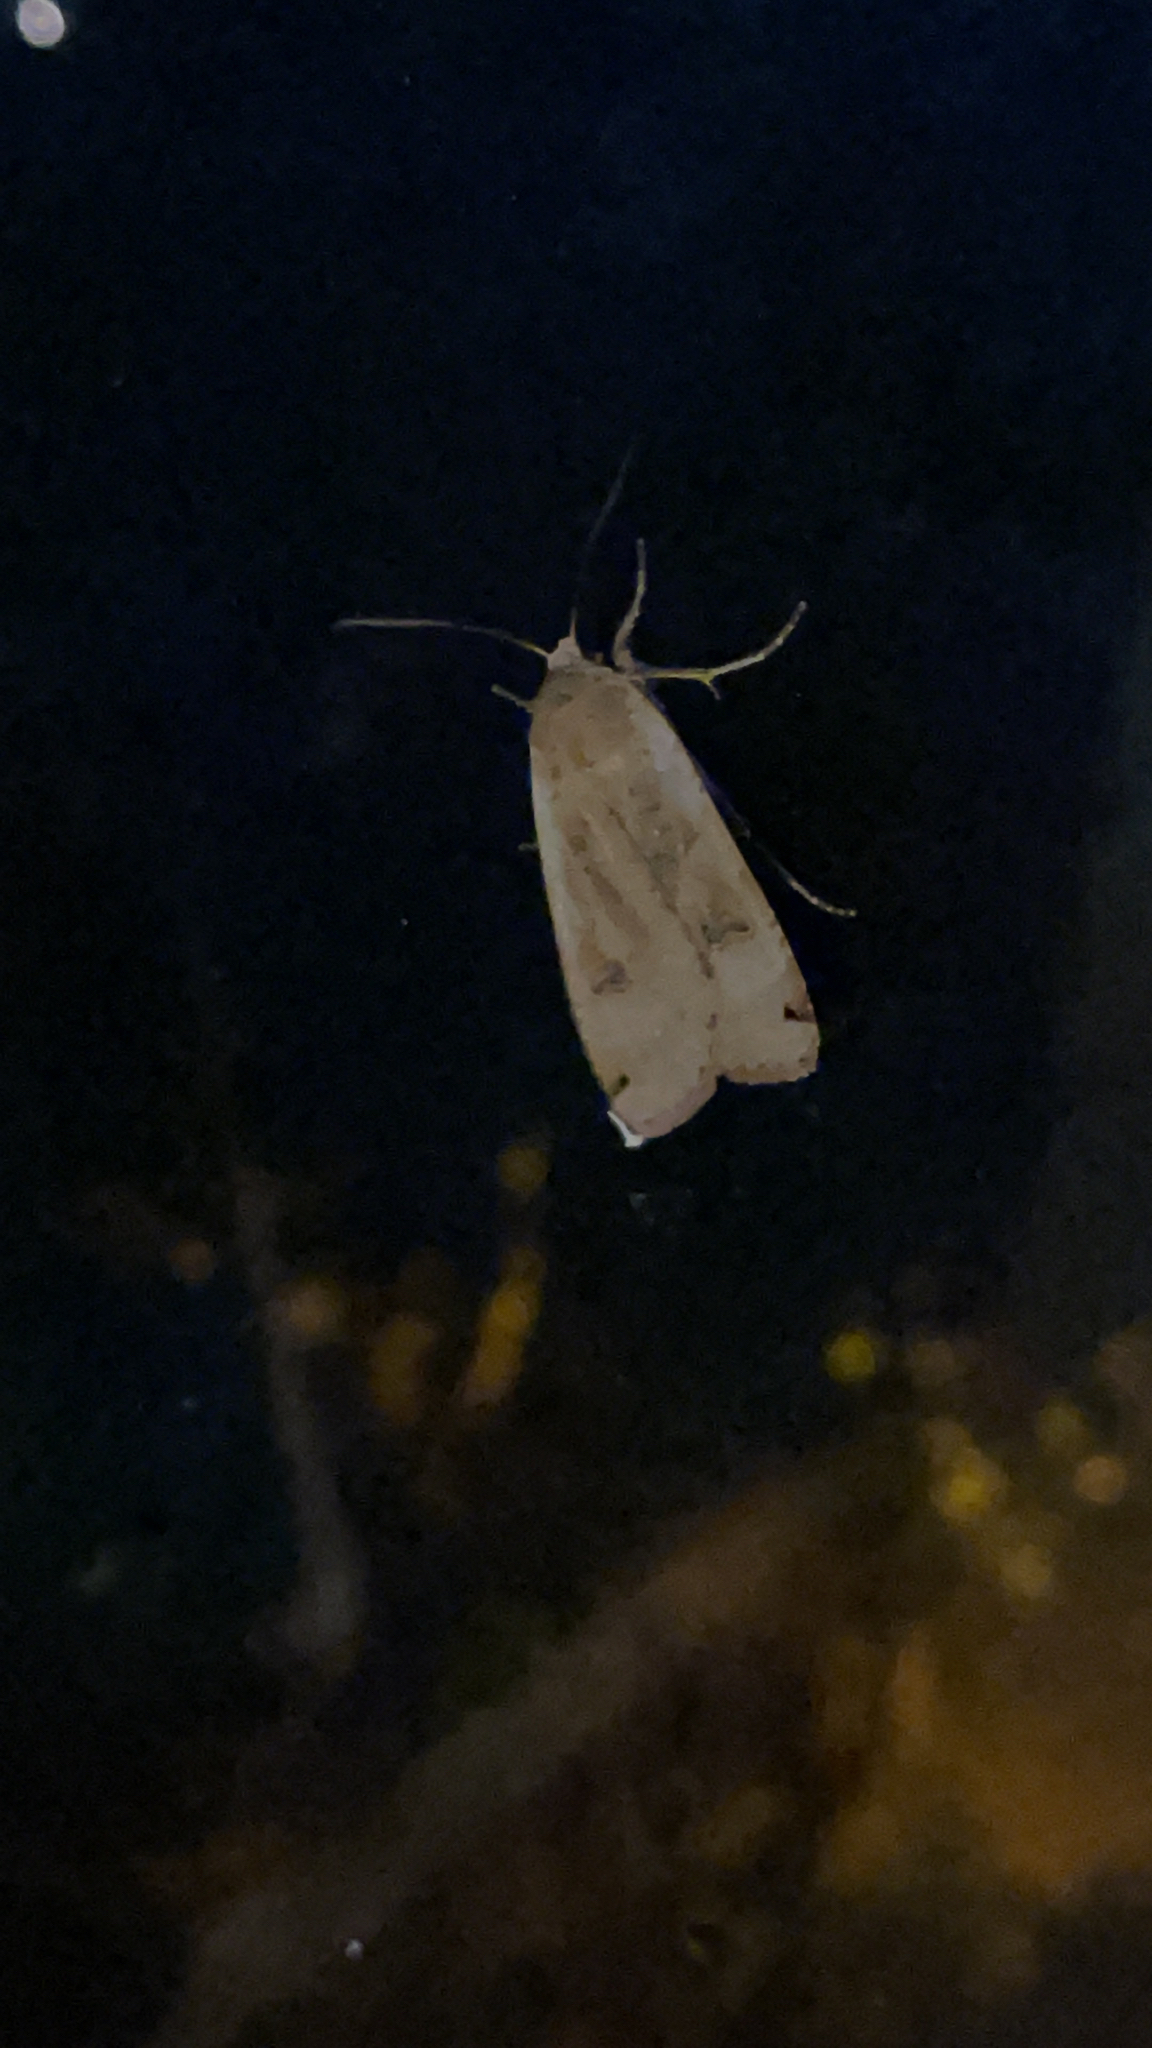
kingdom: Animalia
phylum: Arthropoda
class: Insecta
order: Lepidoptera
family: Noctuidae
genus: Noctua
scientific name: Noctua pronuba
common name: Large yellow underwing
